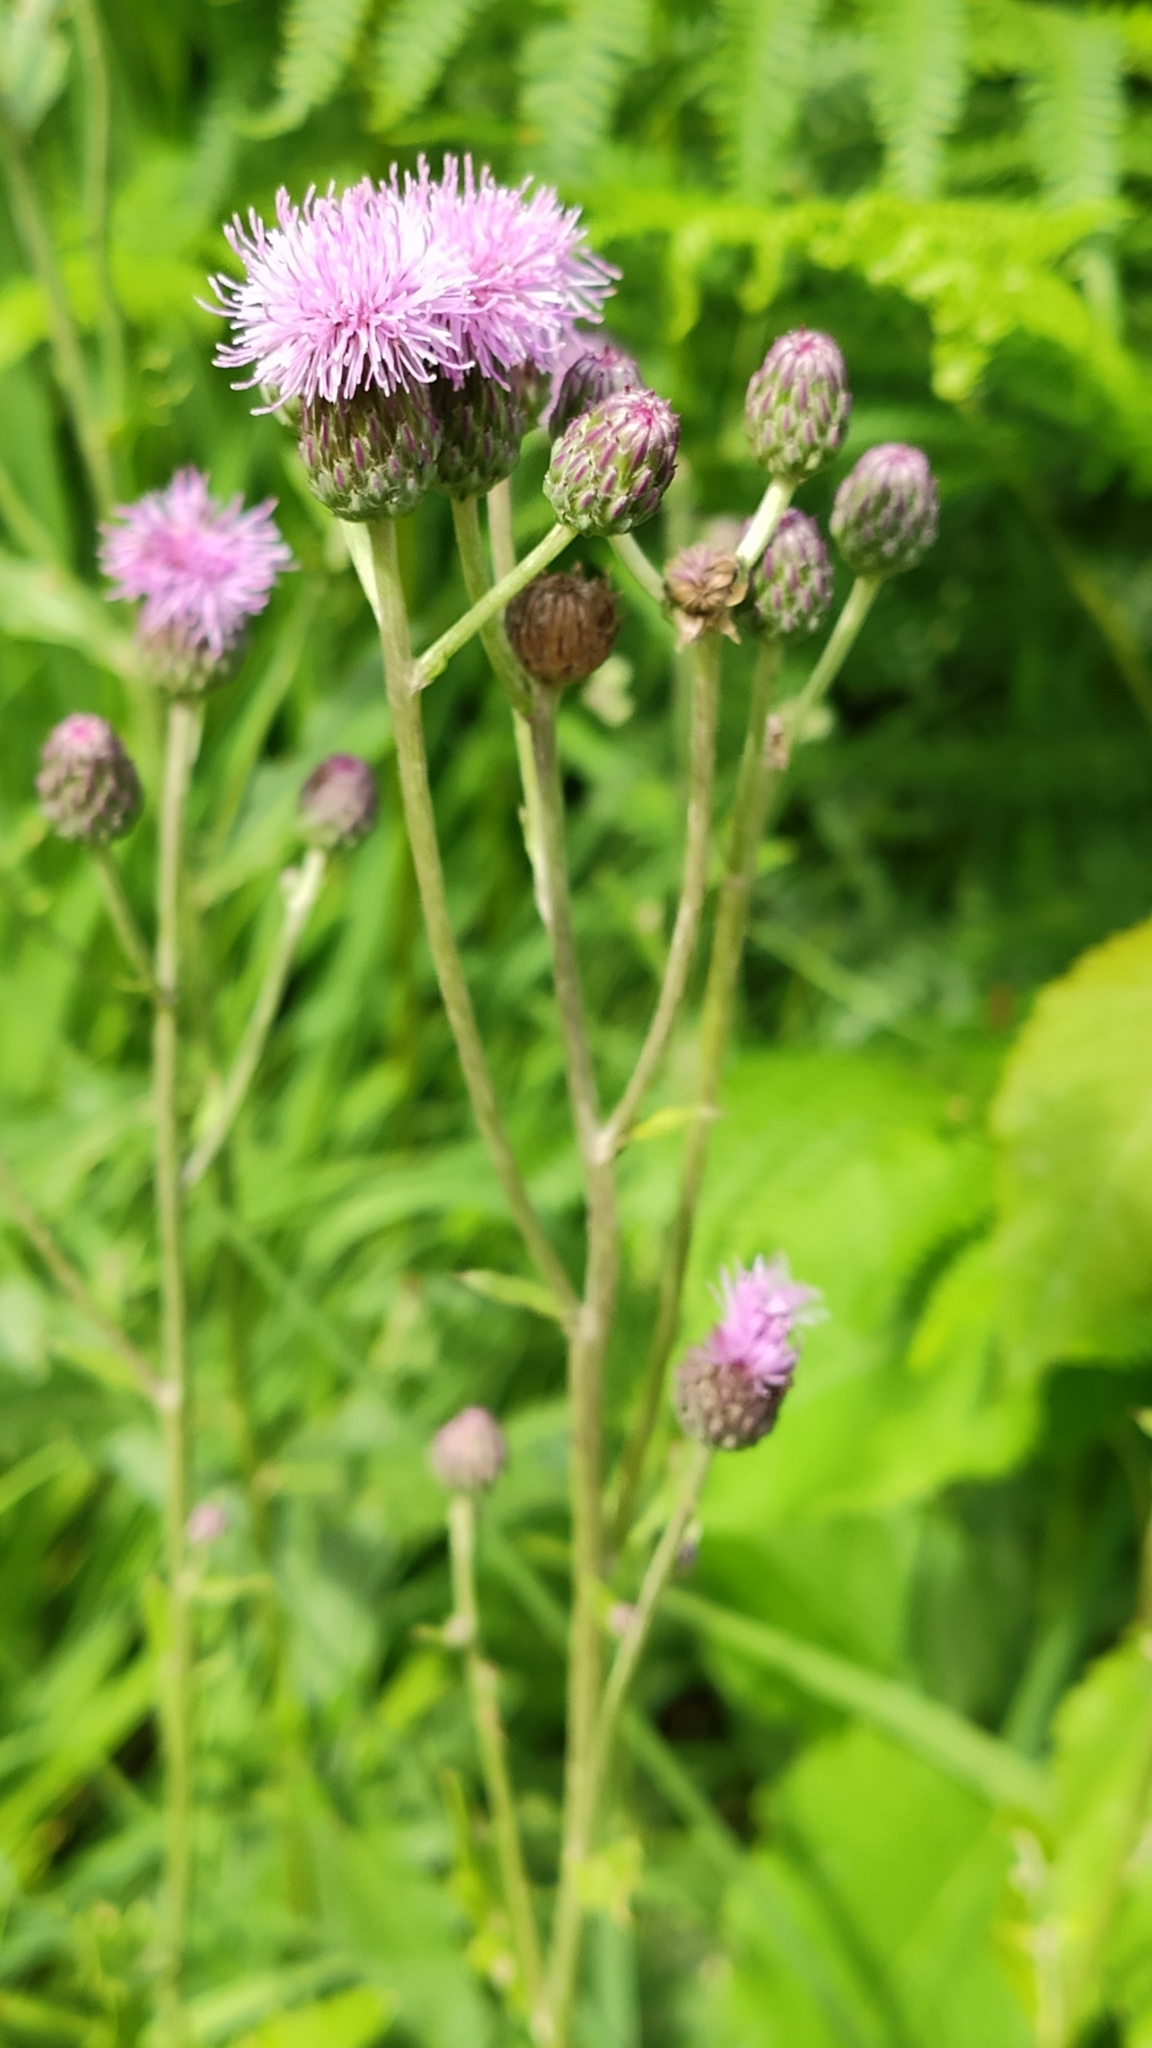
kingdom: Plantae
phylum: Tracheophyta
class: Magnoliopsida
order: Asterales
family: Asteraceae
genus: Cirsium
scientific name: Cirsium arvense
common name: Creeping thistle
